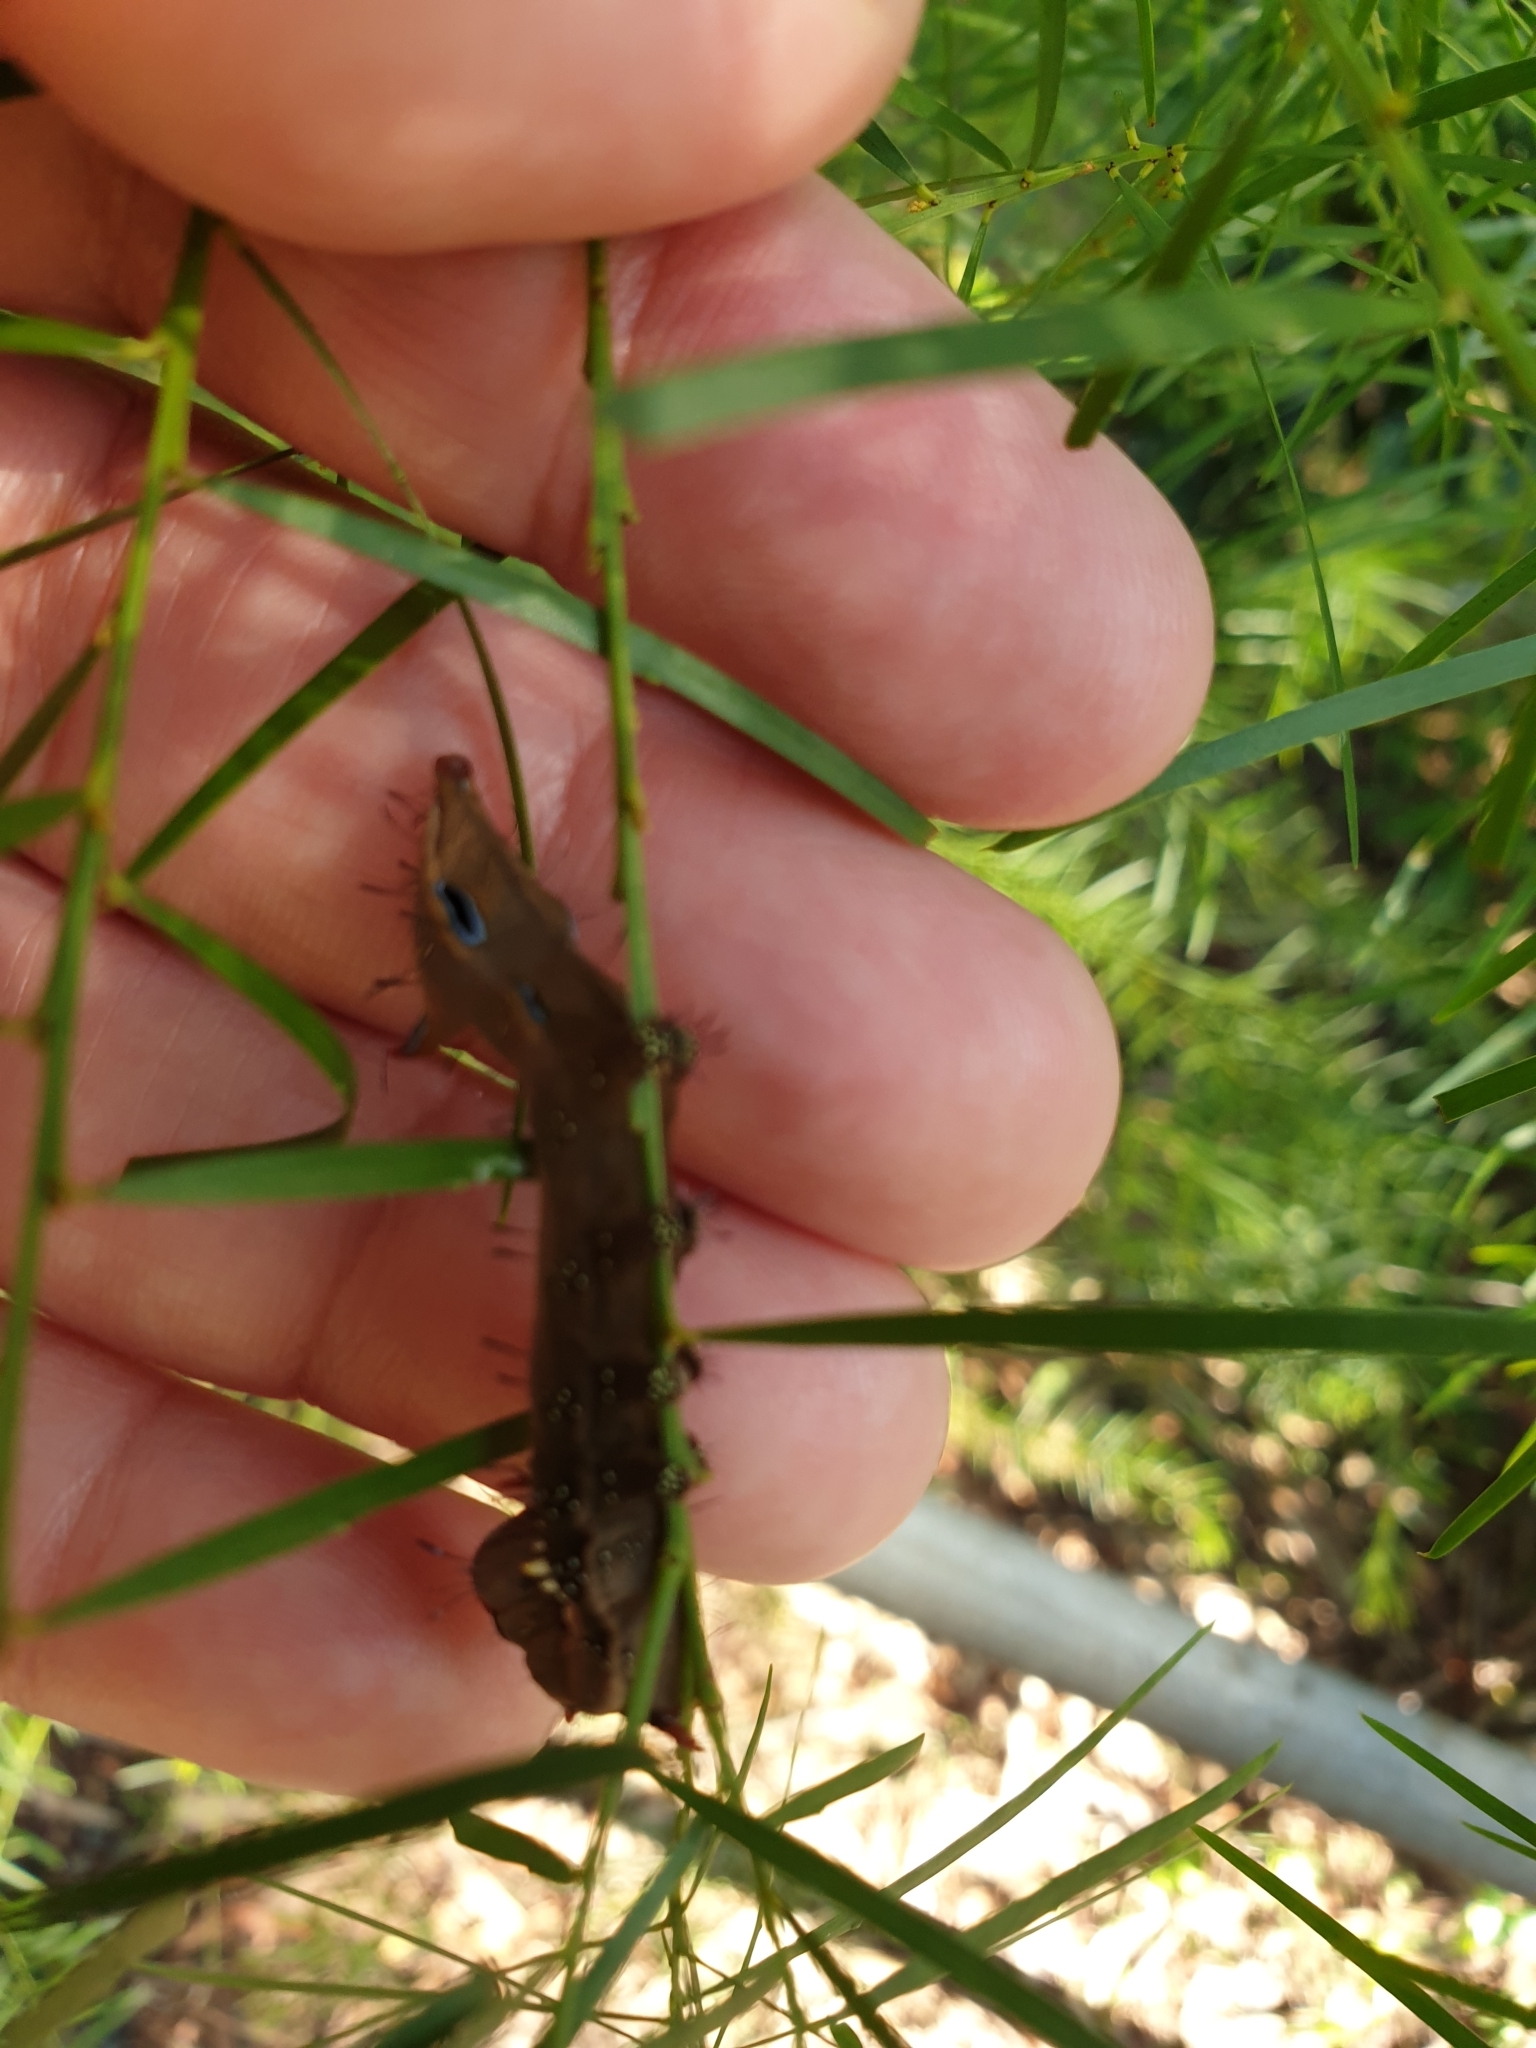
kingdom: Animalia
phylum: Arthropoda
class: Insecta
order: Lepidoptera
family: Notodontidae
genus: Neola
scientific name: Neola semiaurata
